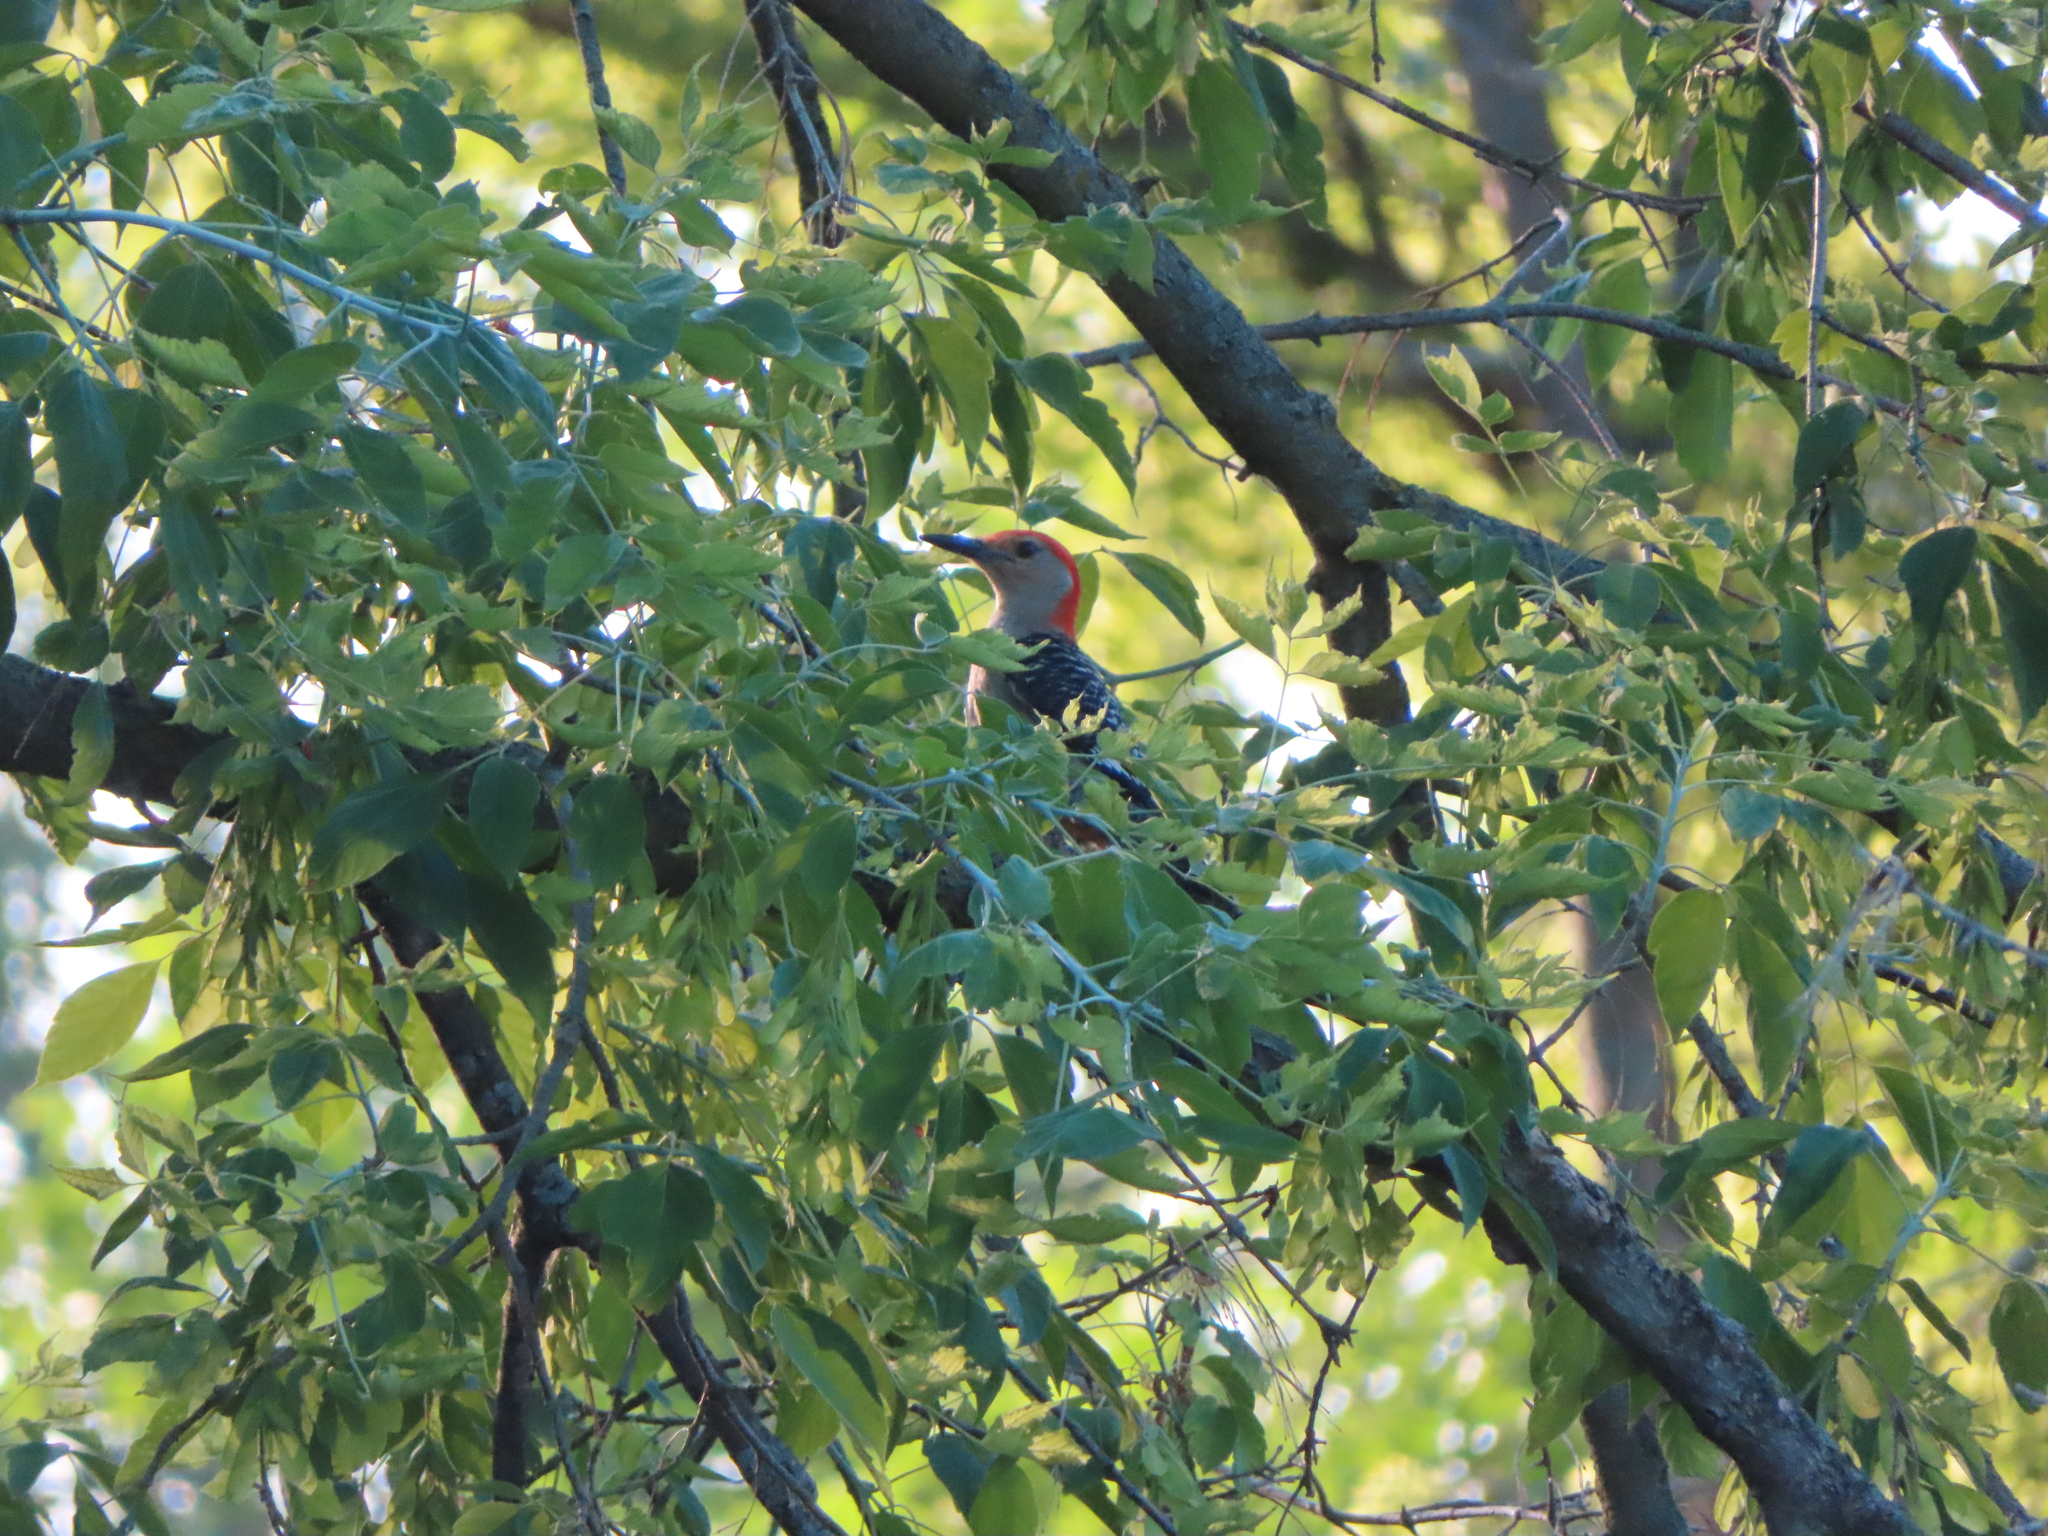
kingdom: Animalia
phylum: Chordata
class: Aves
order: Piciformes
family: Picidae
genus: Melanerpes
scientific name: Melanerpes carolinus
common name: Red-bellied woodpecker
